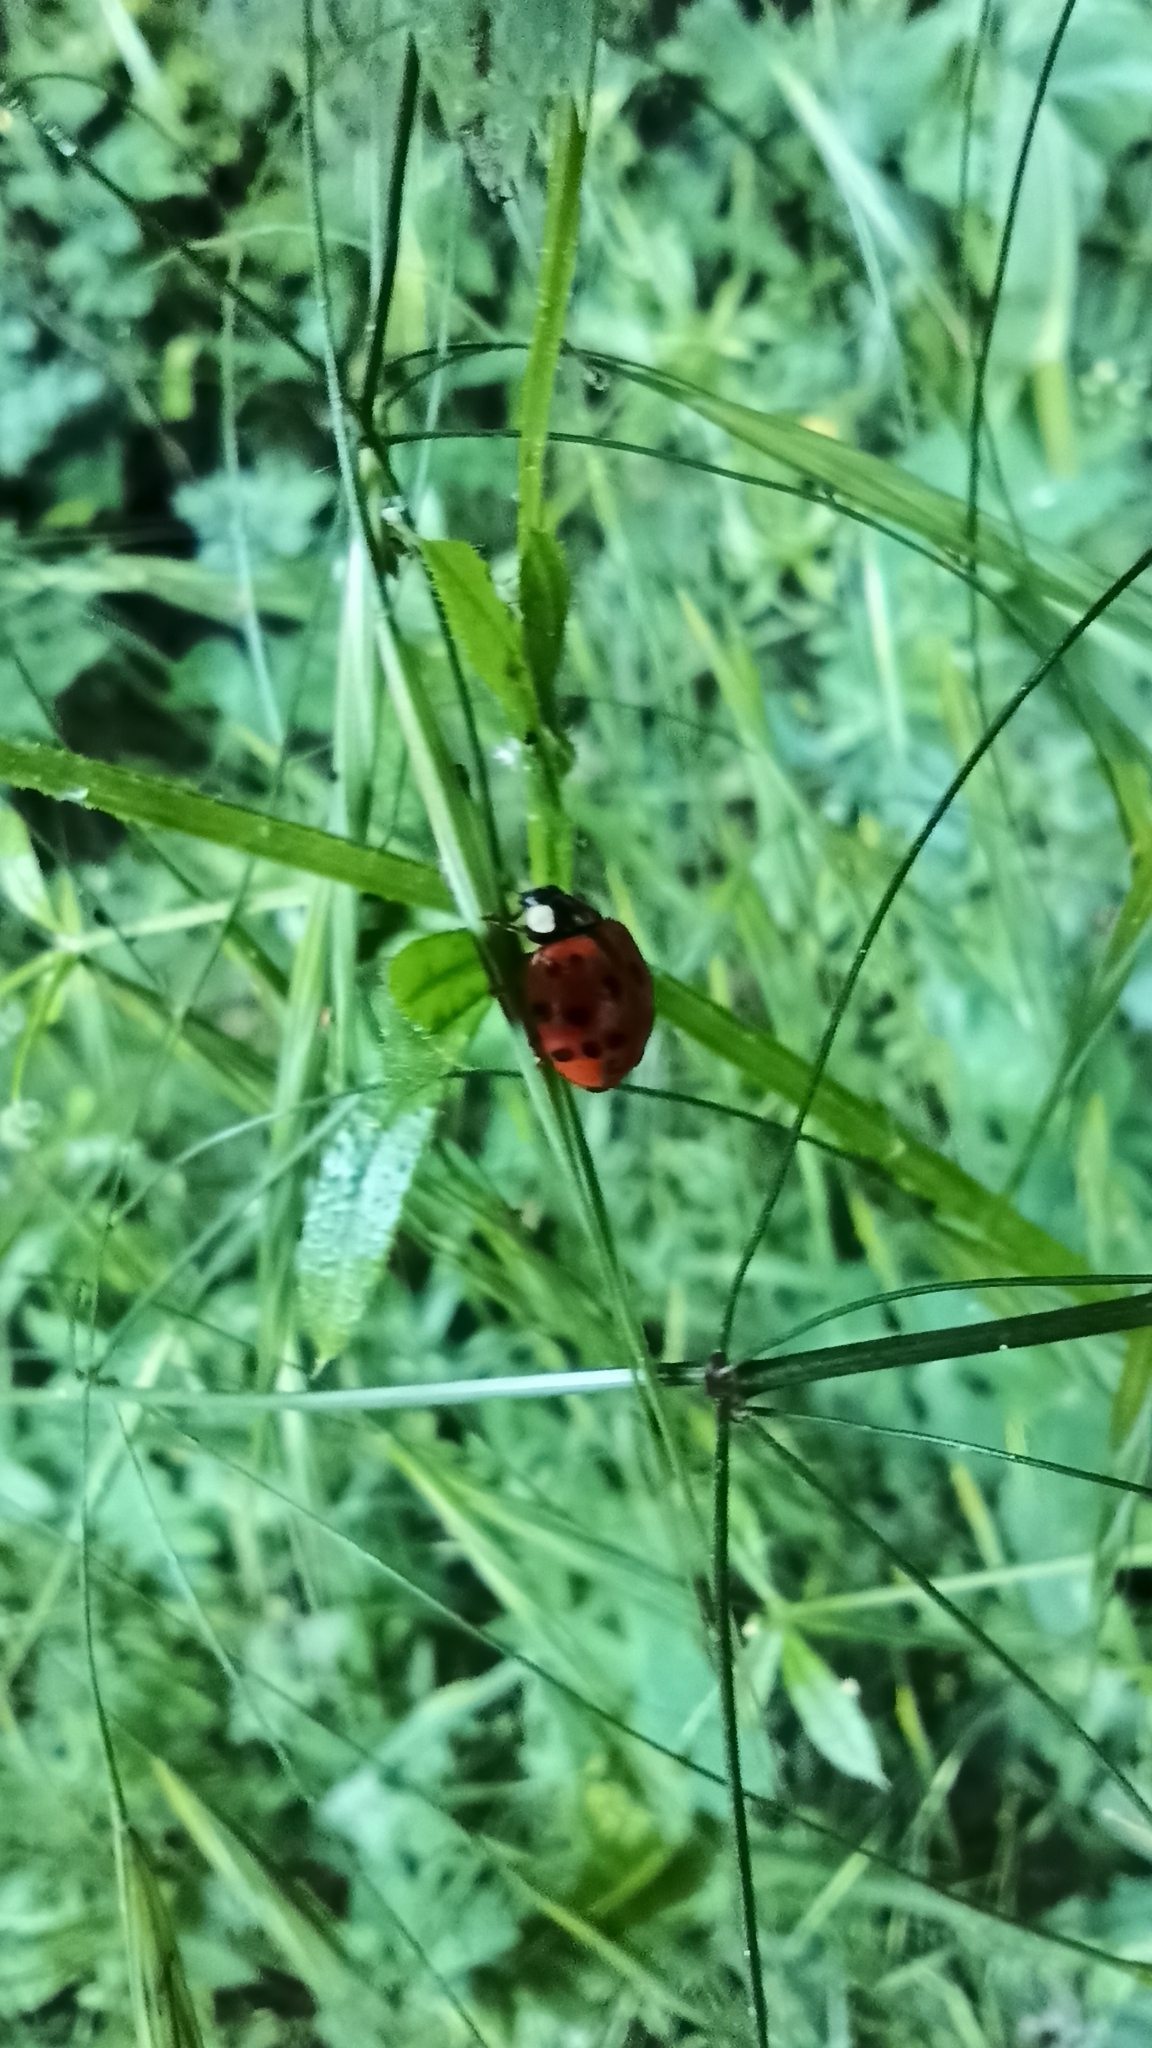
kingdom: Animalia
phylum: Arthropoda
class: Insecta
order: Coleoptera
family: Coccinellidae
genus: Harmonia
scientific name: Harmonia axyridis
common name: Harlequin ladybird
